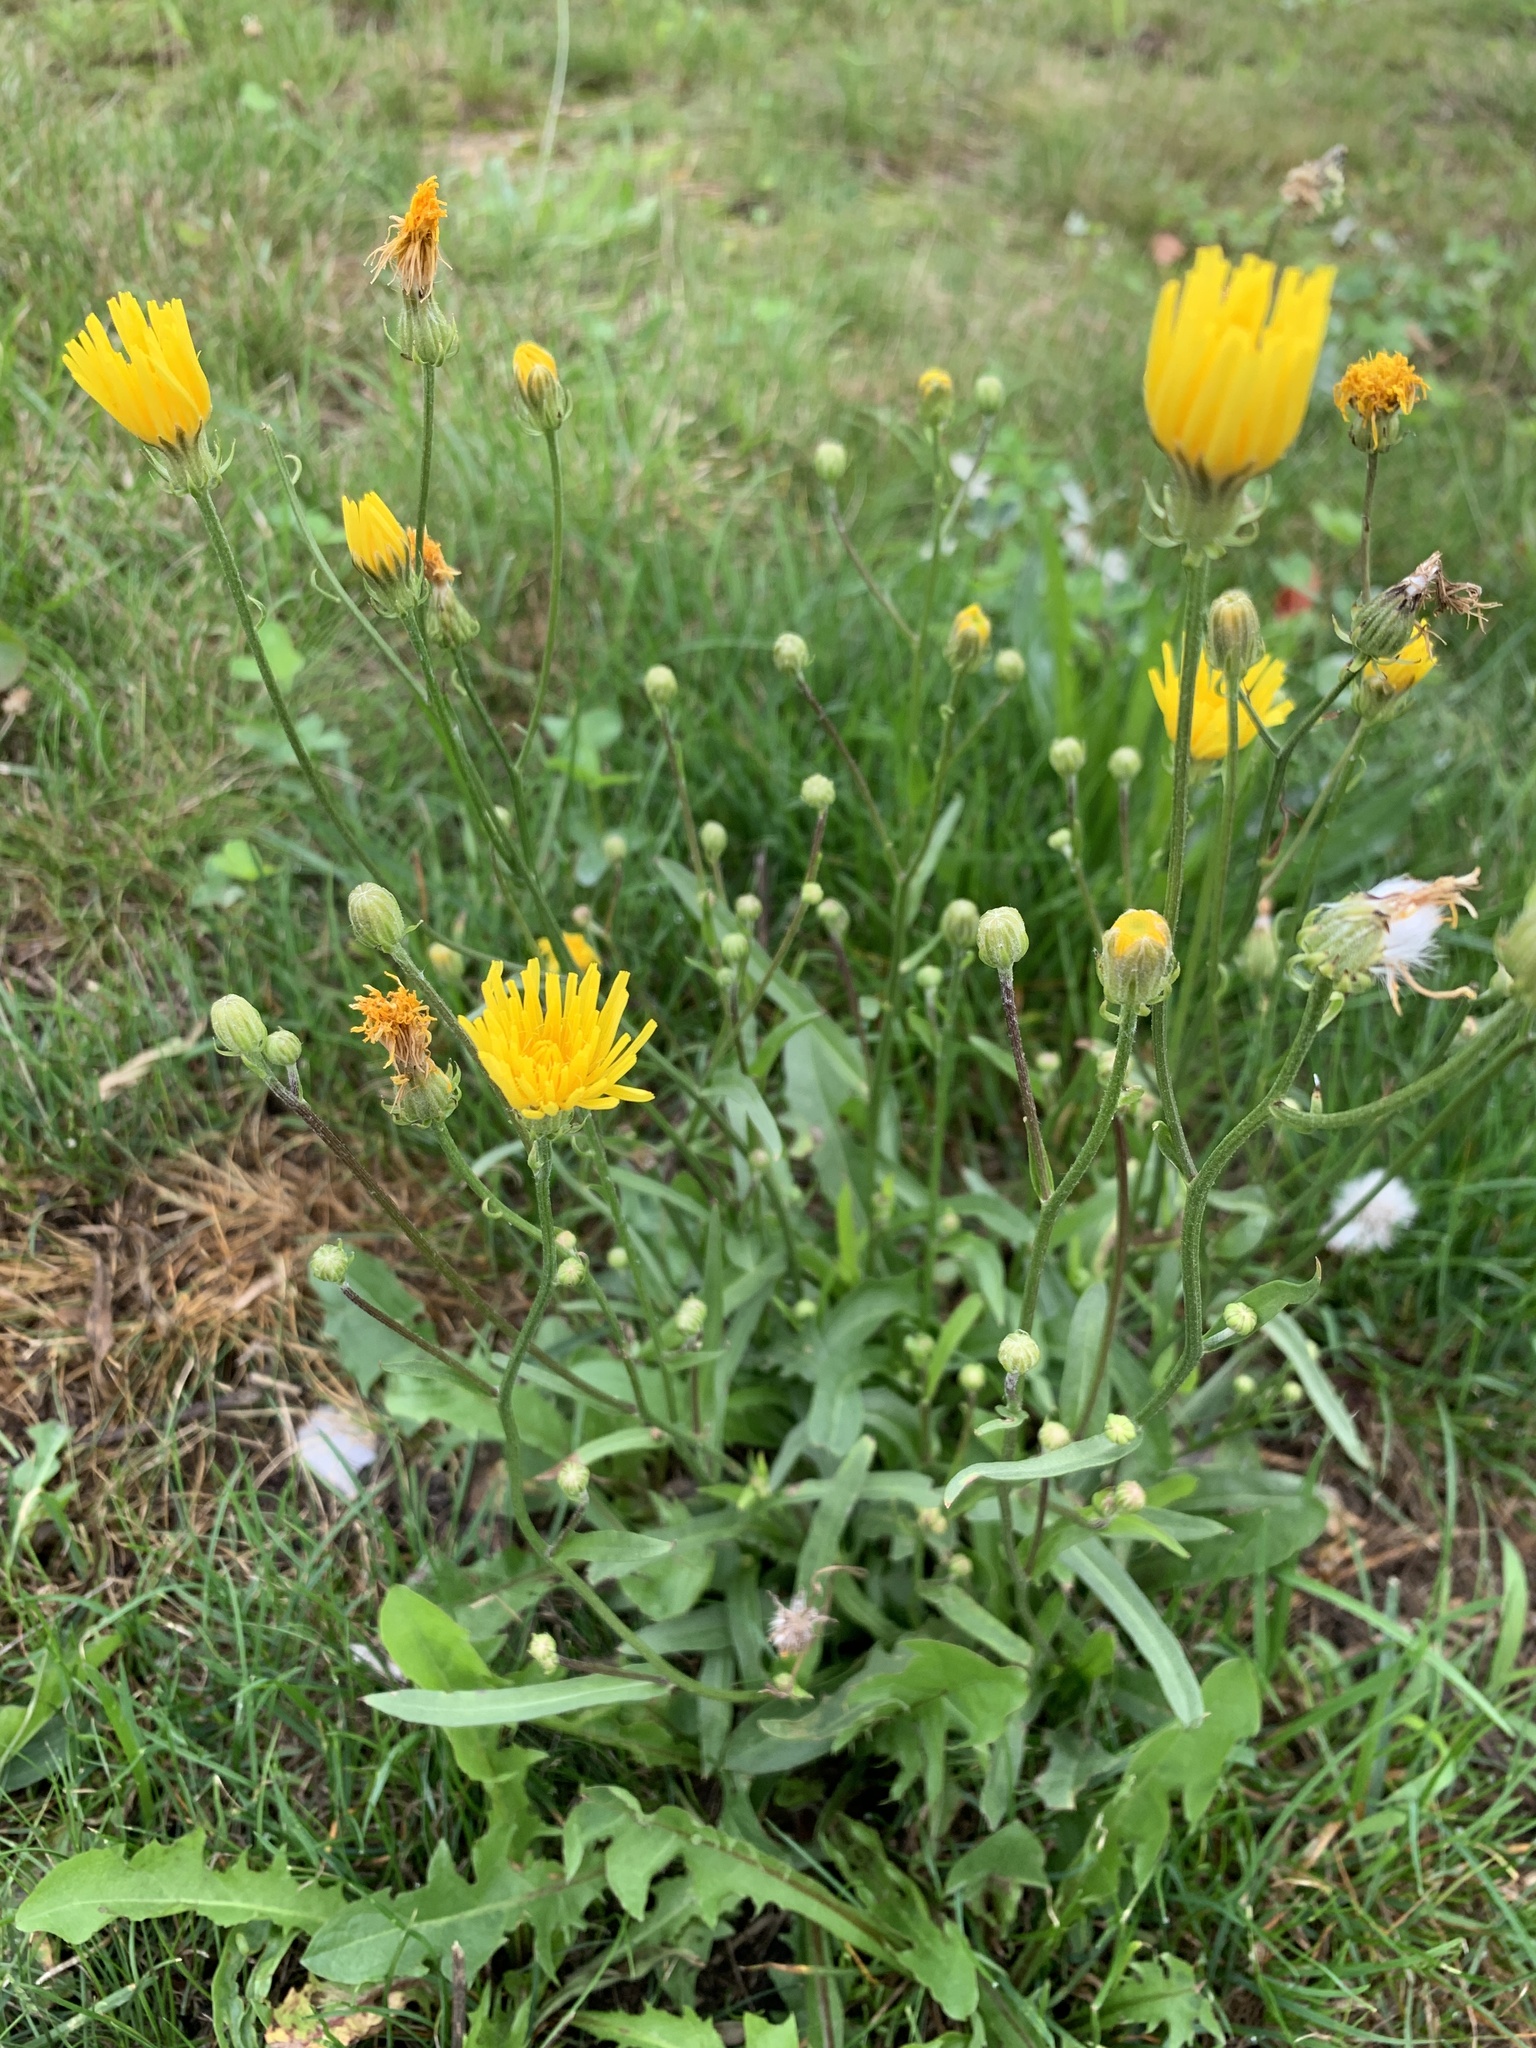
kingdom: Plantae
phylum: Tracheophyta
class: Magnoliopsida
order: Asterales
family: Asteraceae
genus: Crepis
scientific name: Crepis biennis
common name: Rough hawk's-beard
